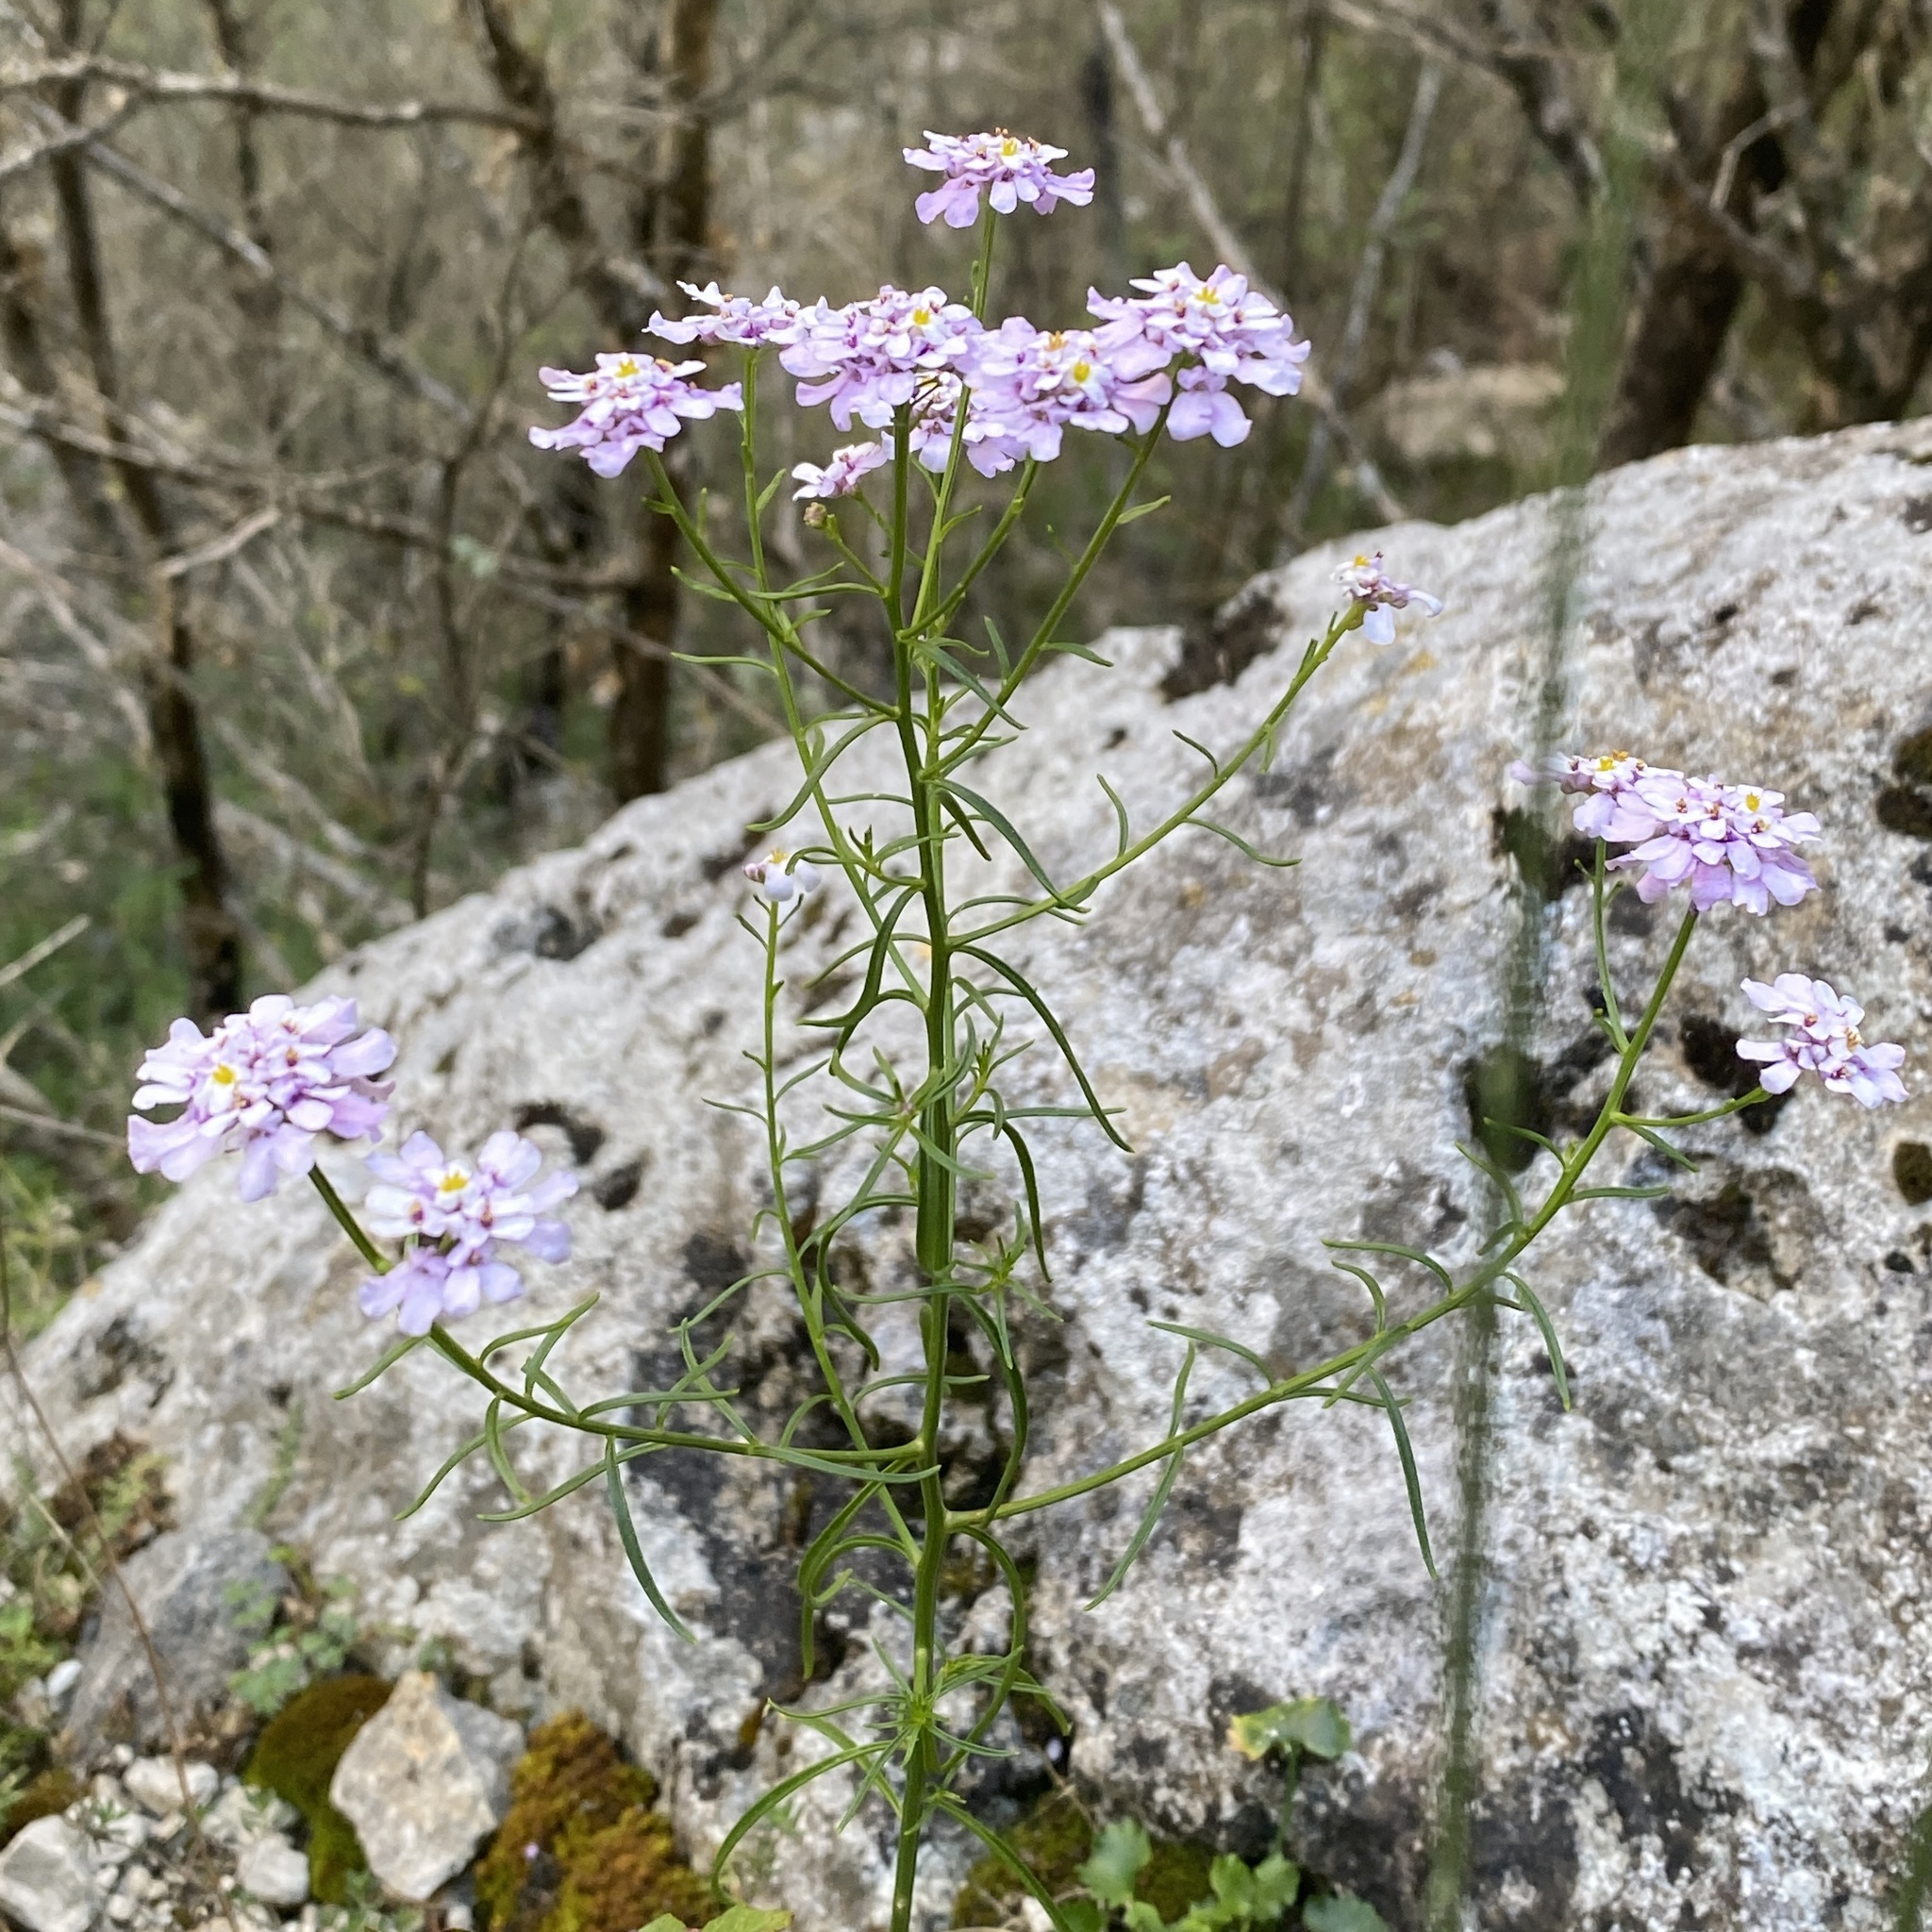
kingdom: Plantae
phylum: Tracheophyta
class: Magnoliopsida
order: Brassicales
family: Brassicaceae
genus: Iberis
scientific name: Iberis linifolia
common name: Candytuft
